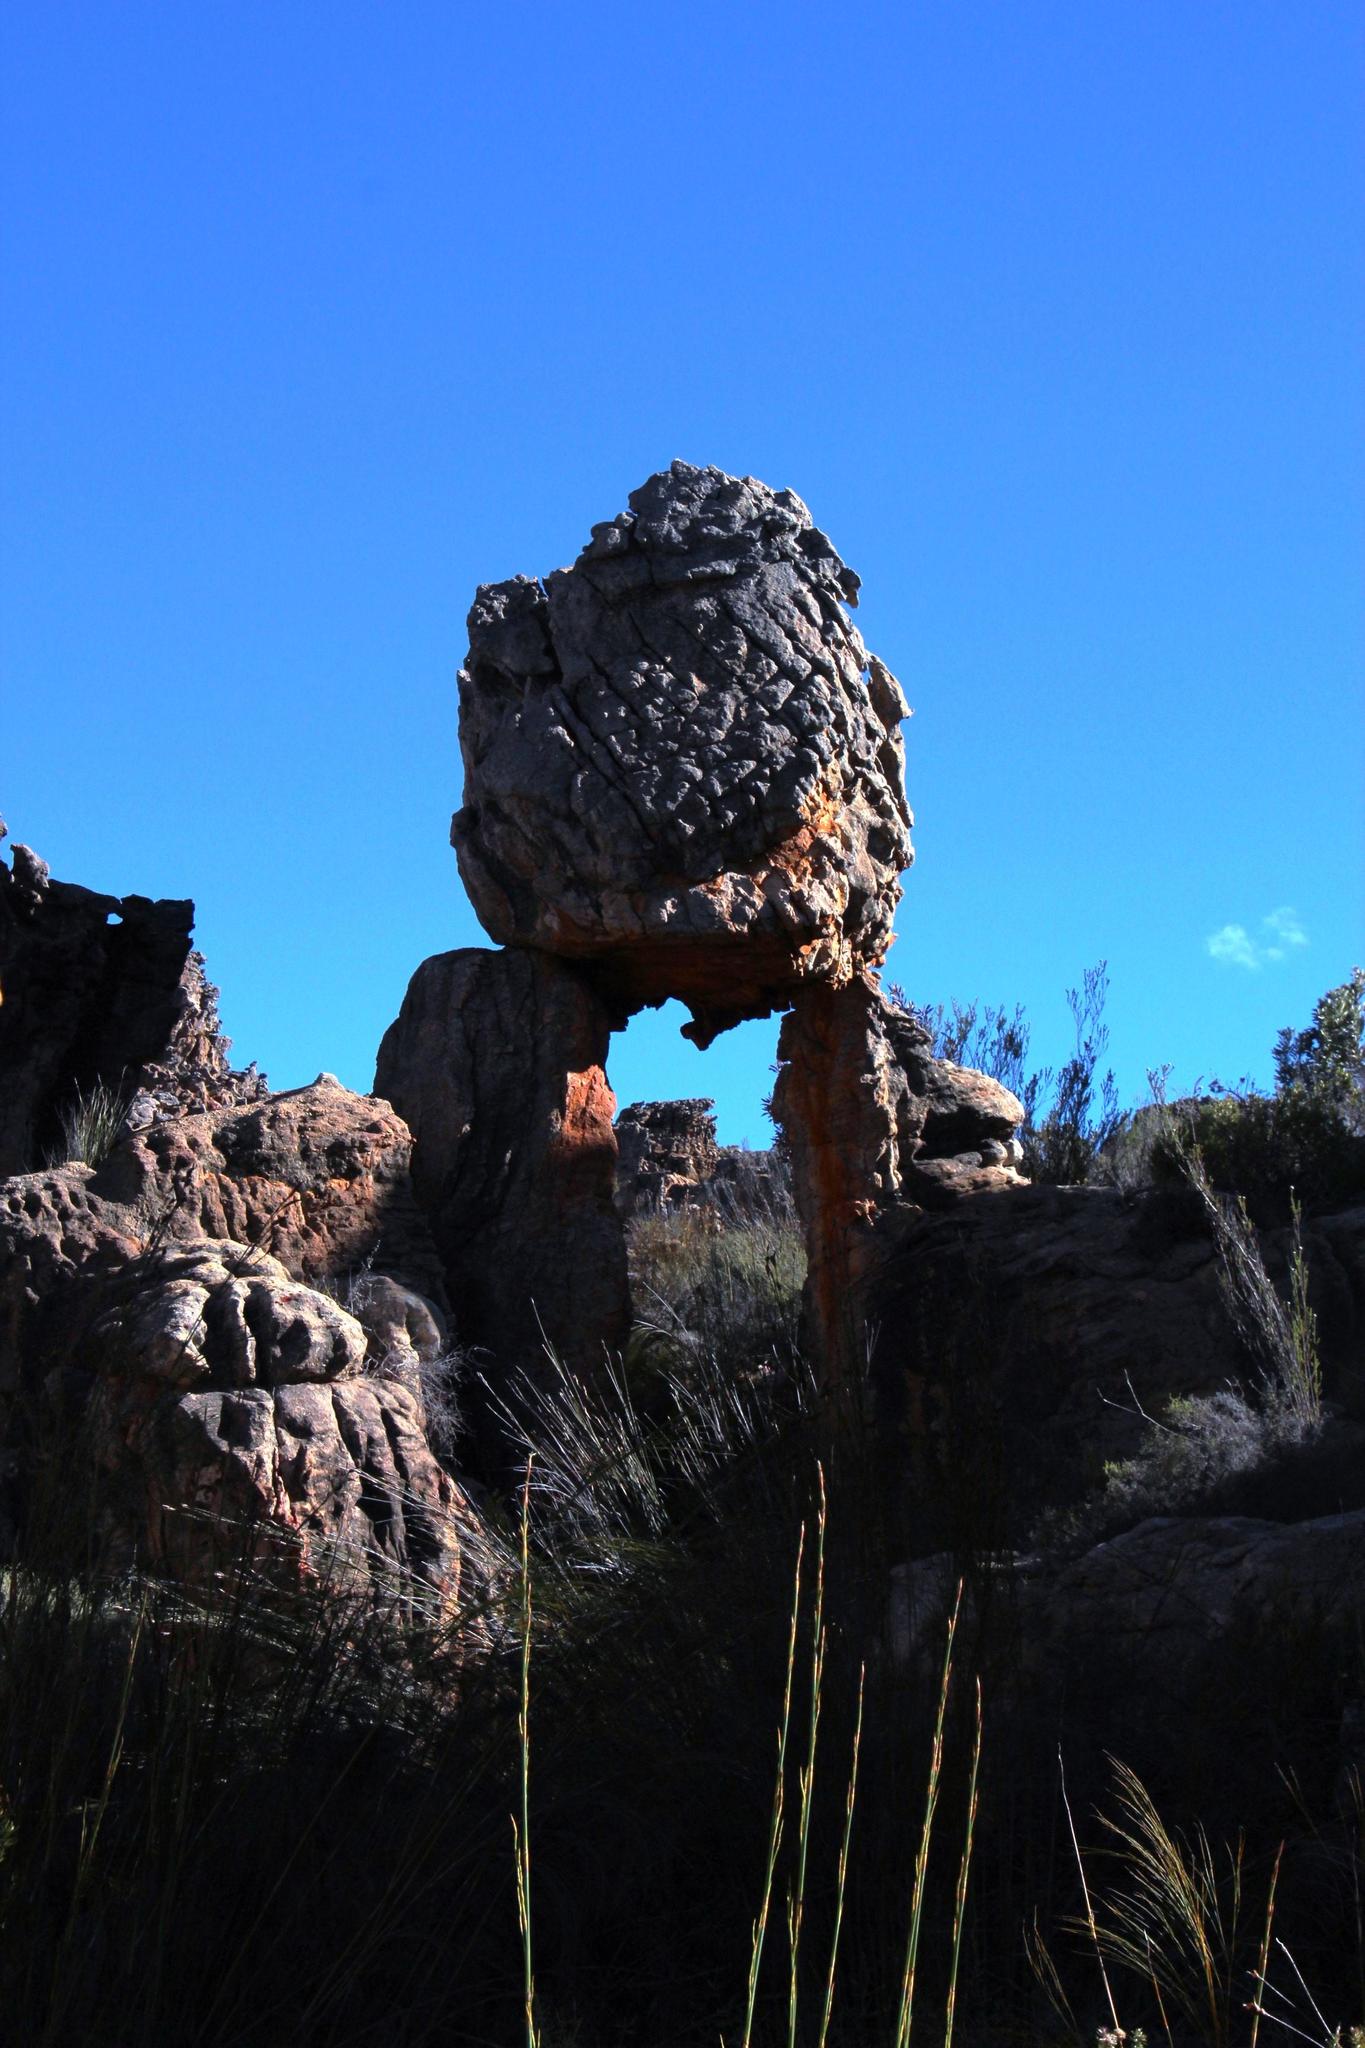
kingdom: Plantae
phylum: Tracheophyta
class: Magnoliopsida
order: Ericales
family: Ericaceae
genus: Erica
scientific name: Erica maximiliani
